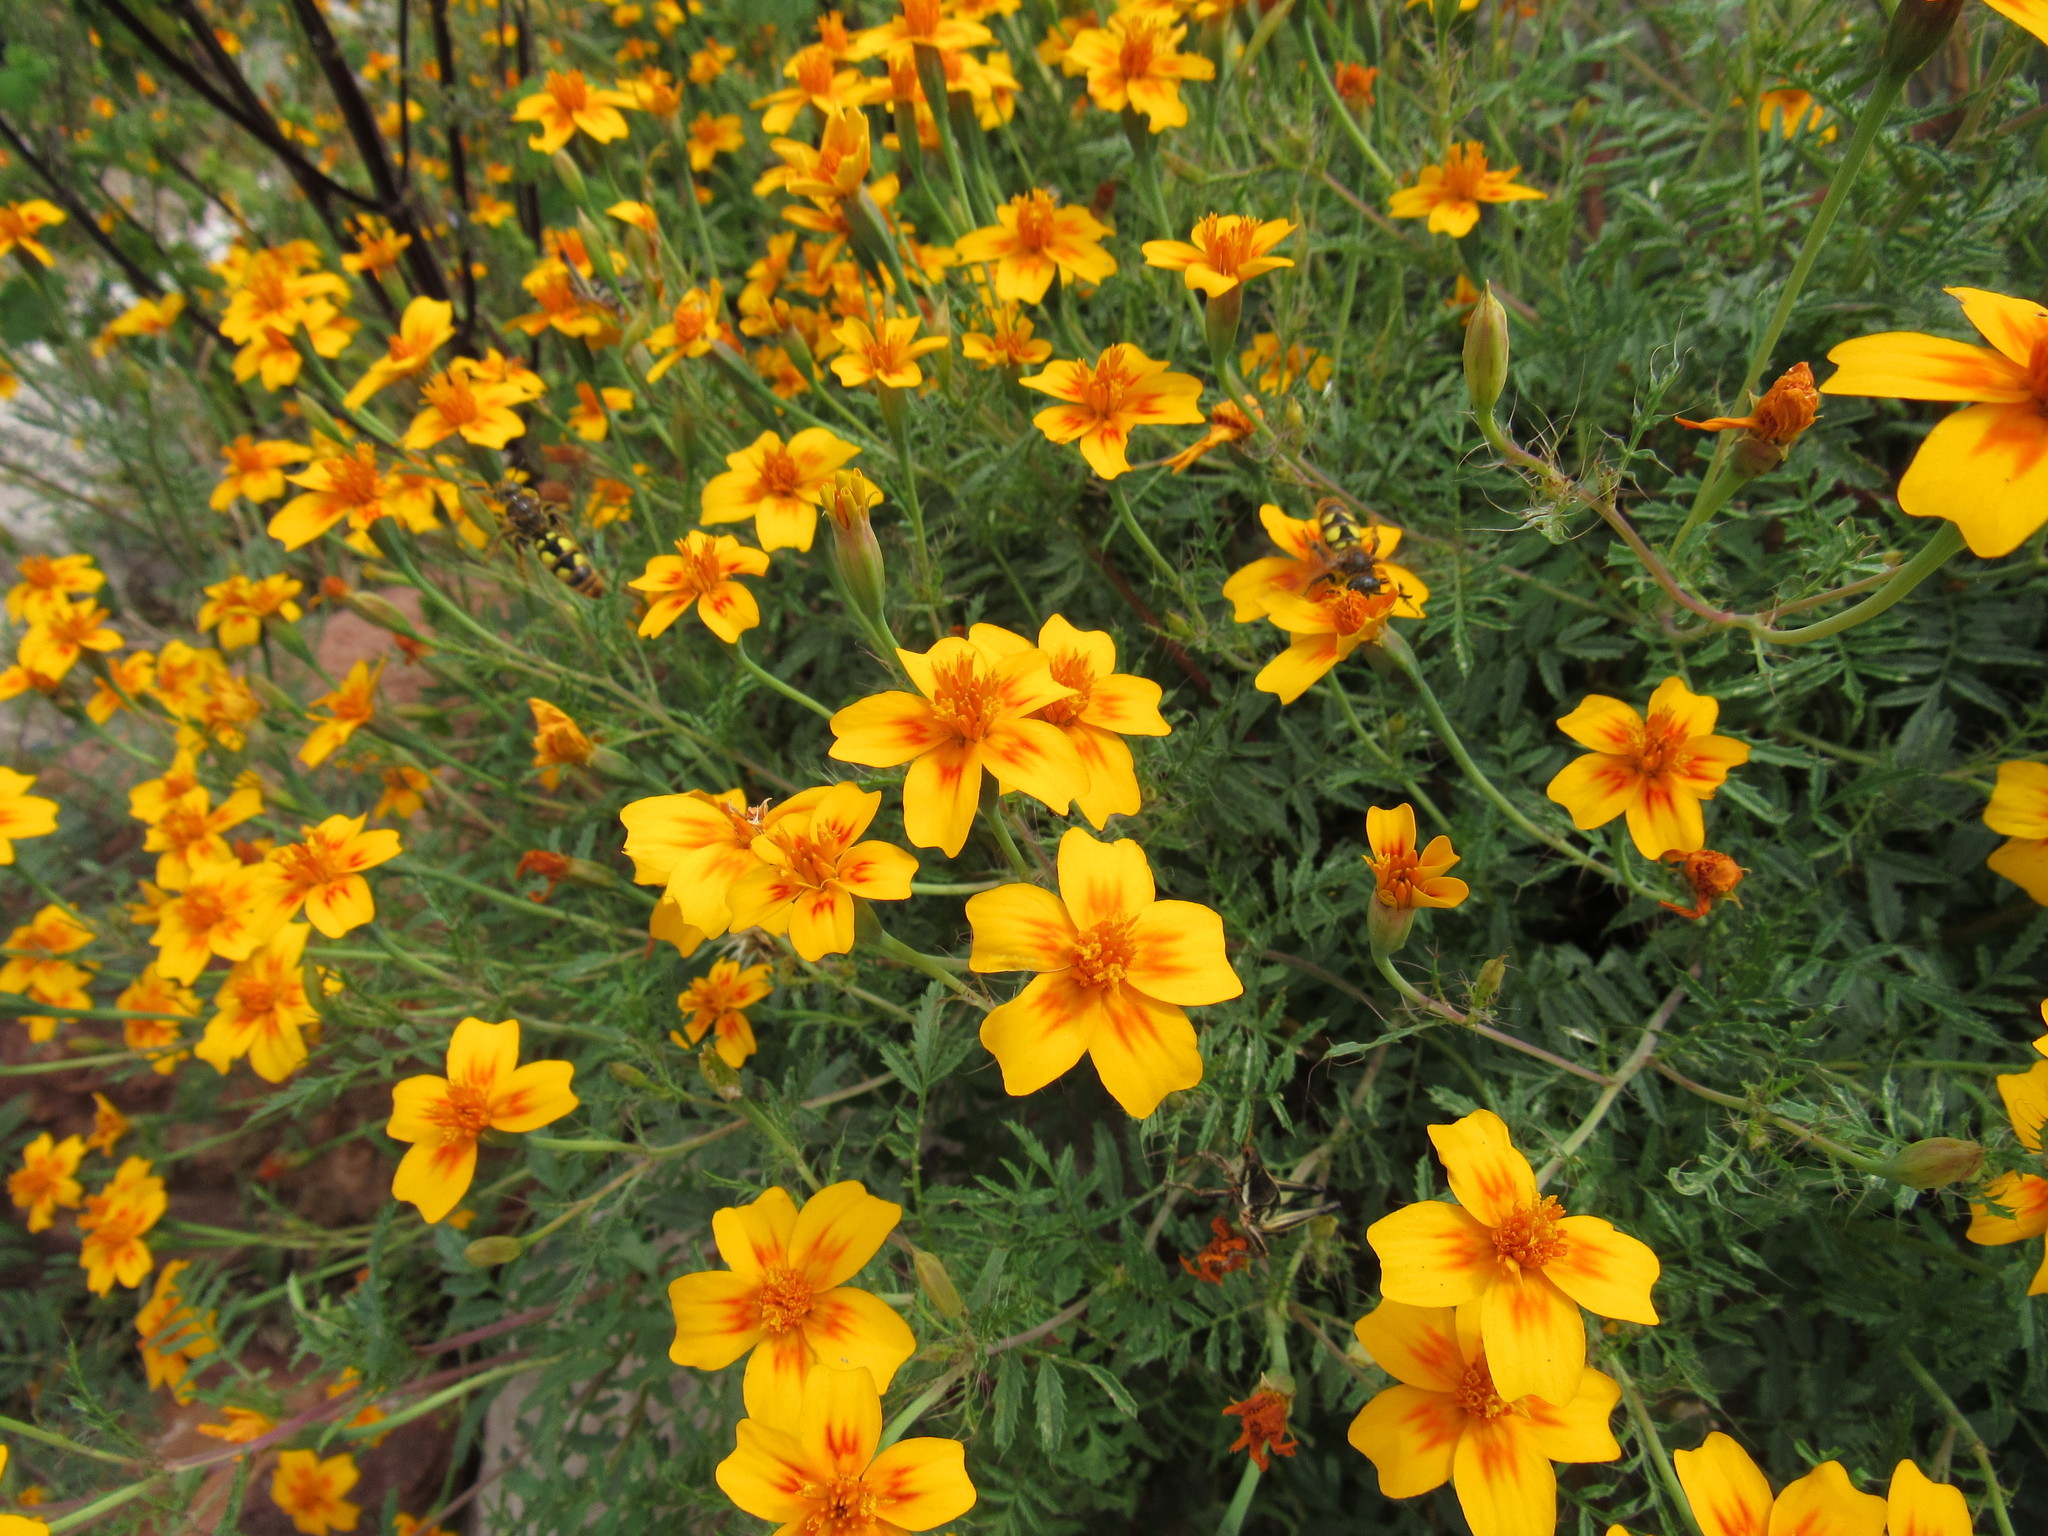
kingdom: Animalia
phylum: Arthropoda
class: Insecta
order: Hymenoptera
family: Scoliidae
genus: Xantocampsomeris
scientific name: Xantocampsomeris limosa
